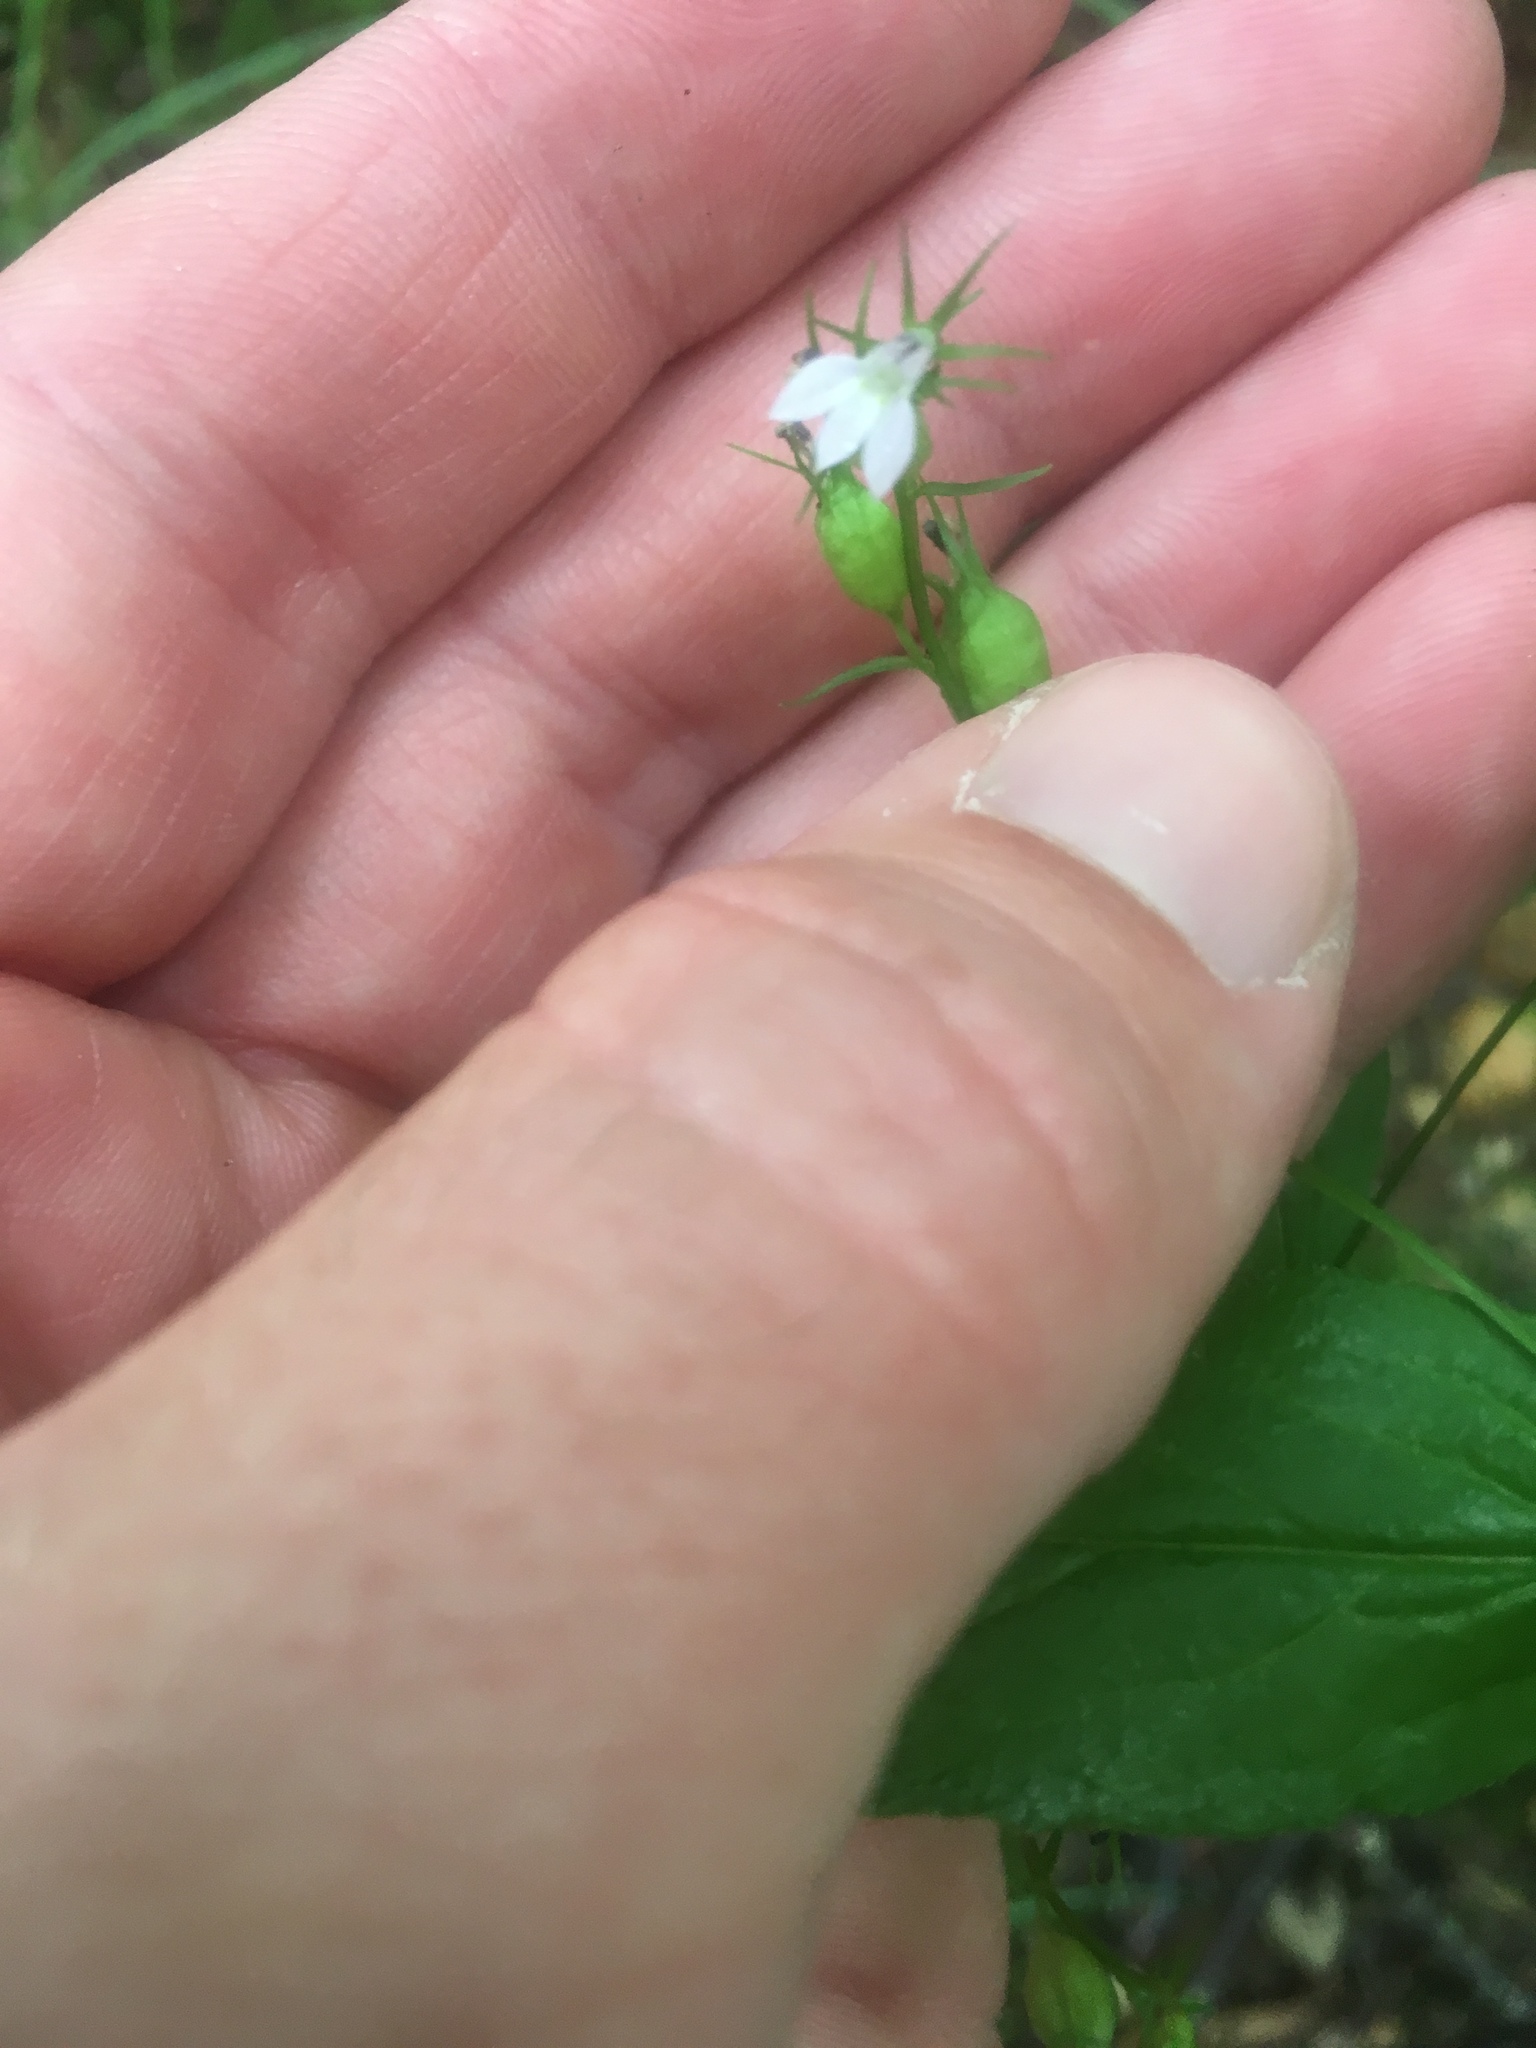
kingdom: Plantae
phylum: Tracheophyta
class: Magnoliopsida
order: Asterales
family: Campanulaceae
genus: Lobelia
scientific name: Lobelia inflata
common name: Indian tobacco
